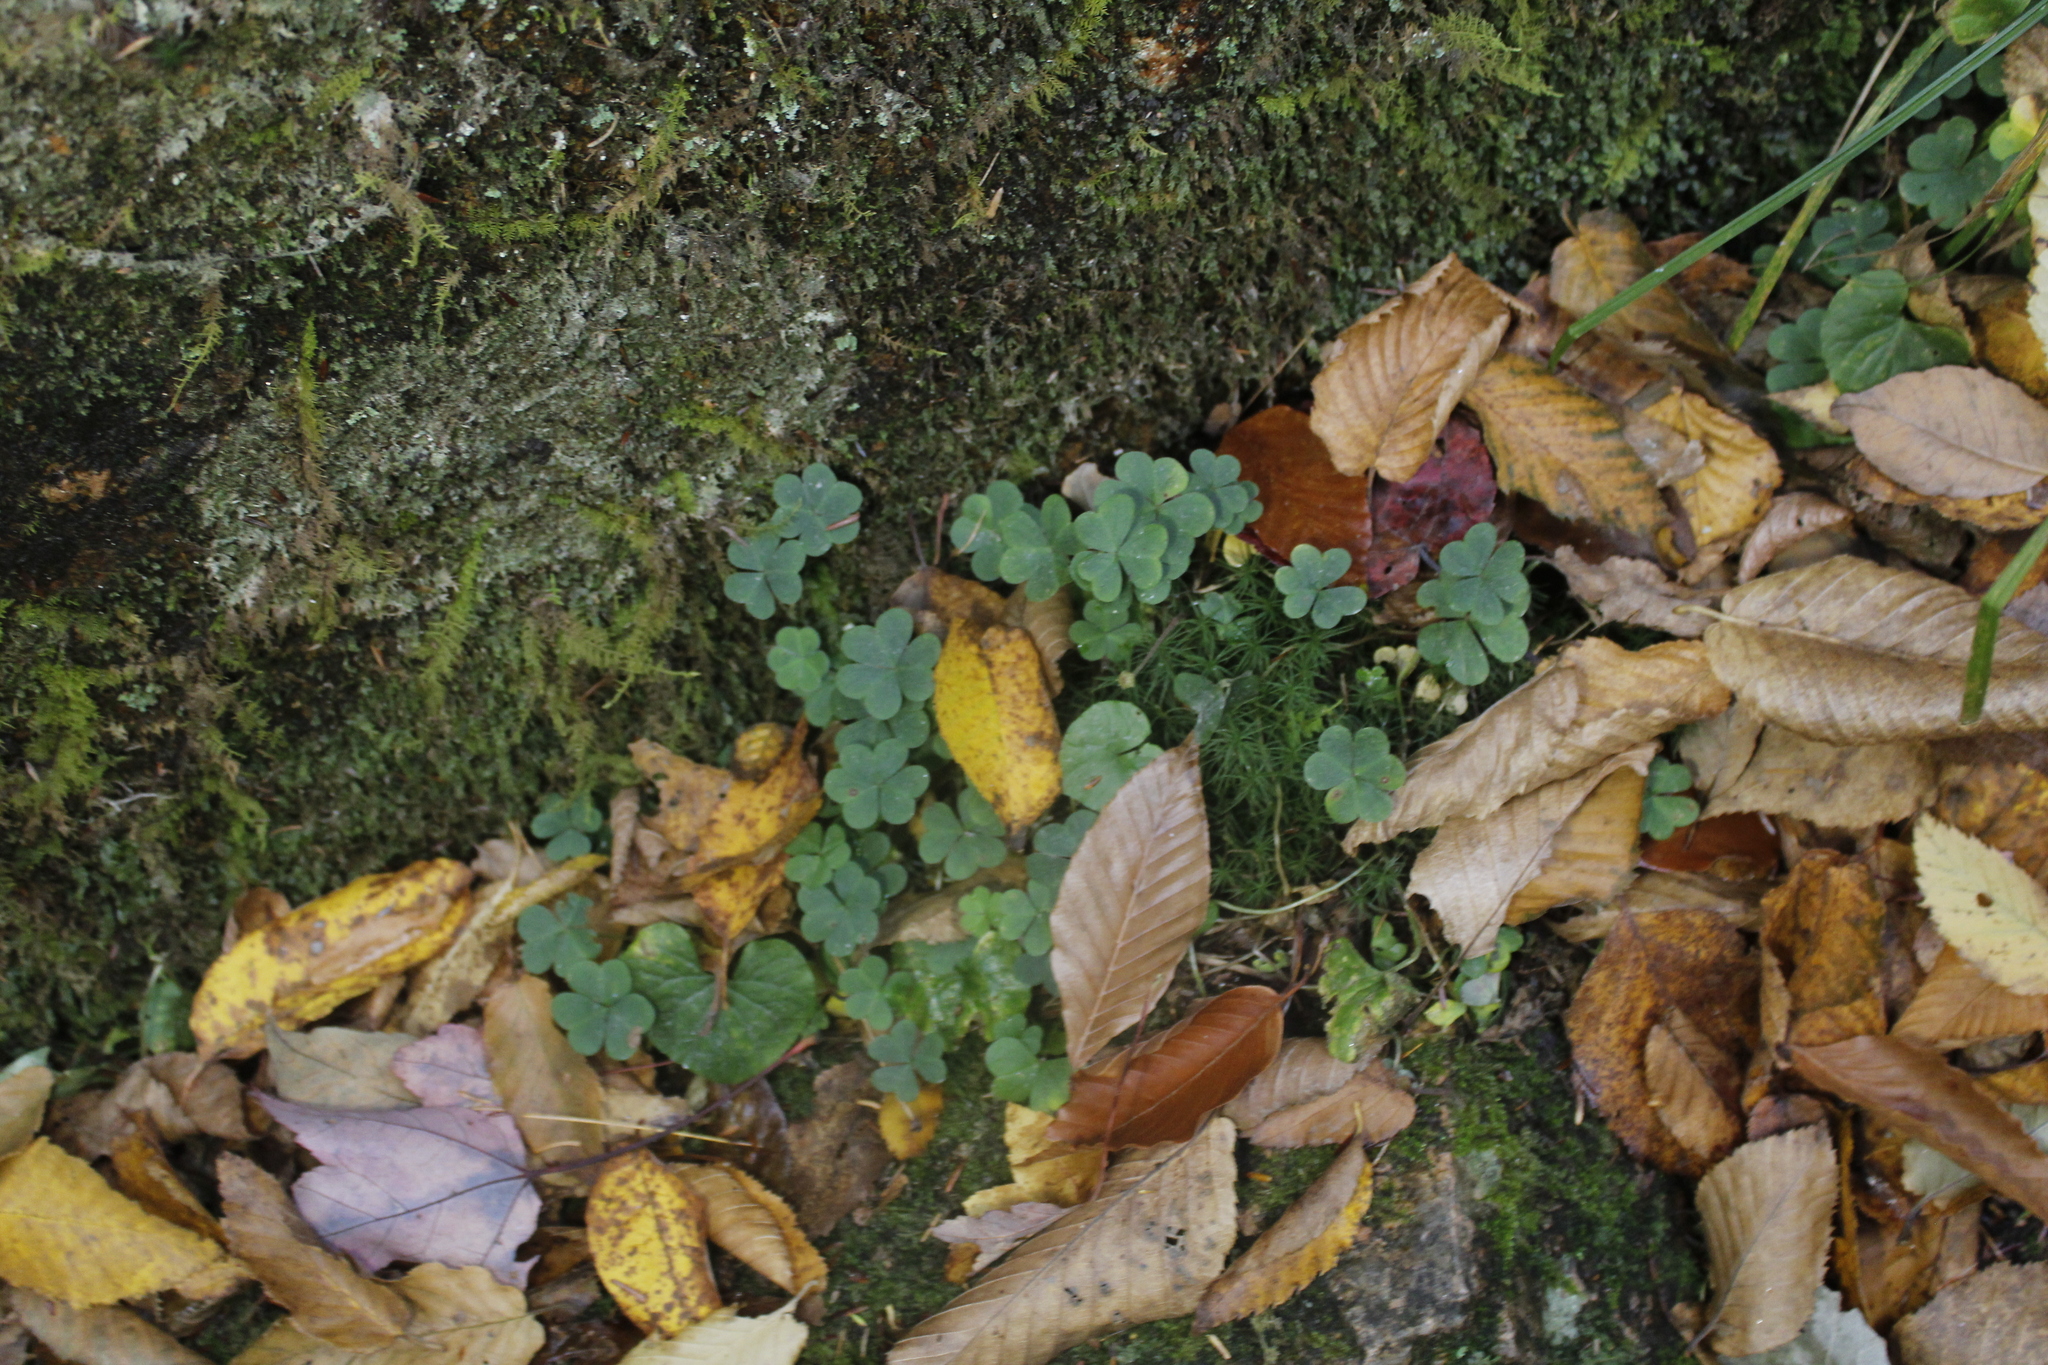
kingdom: Plantae
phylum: Tracheophyta
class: Magnoliopsida
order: Oxalidales
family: Oxalidaceae
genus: Oxalis
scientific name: Oxalis montana
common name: American wood-sorrel
